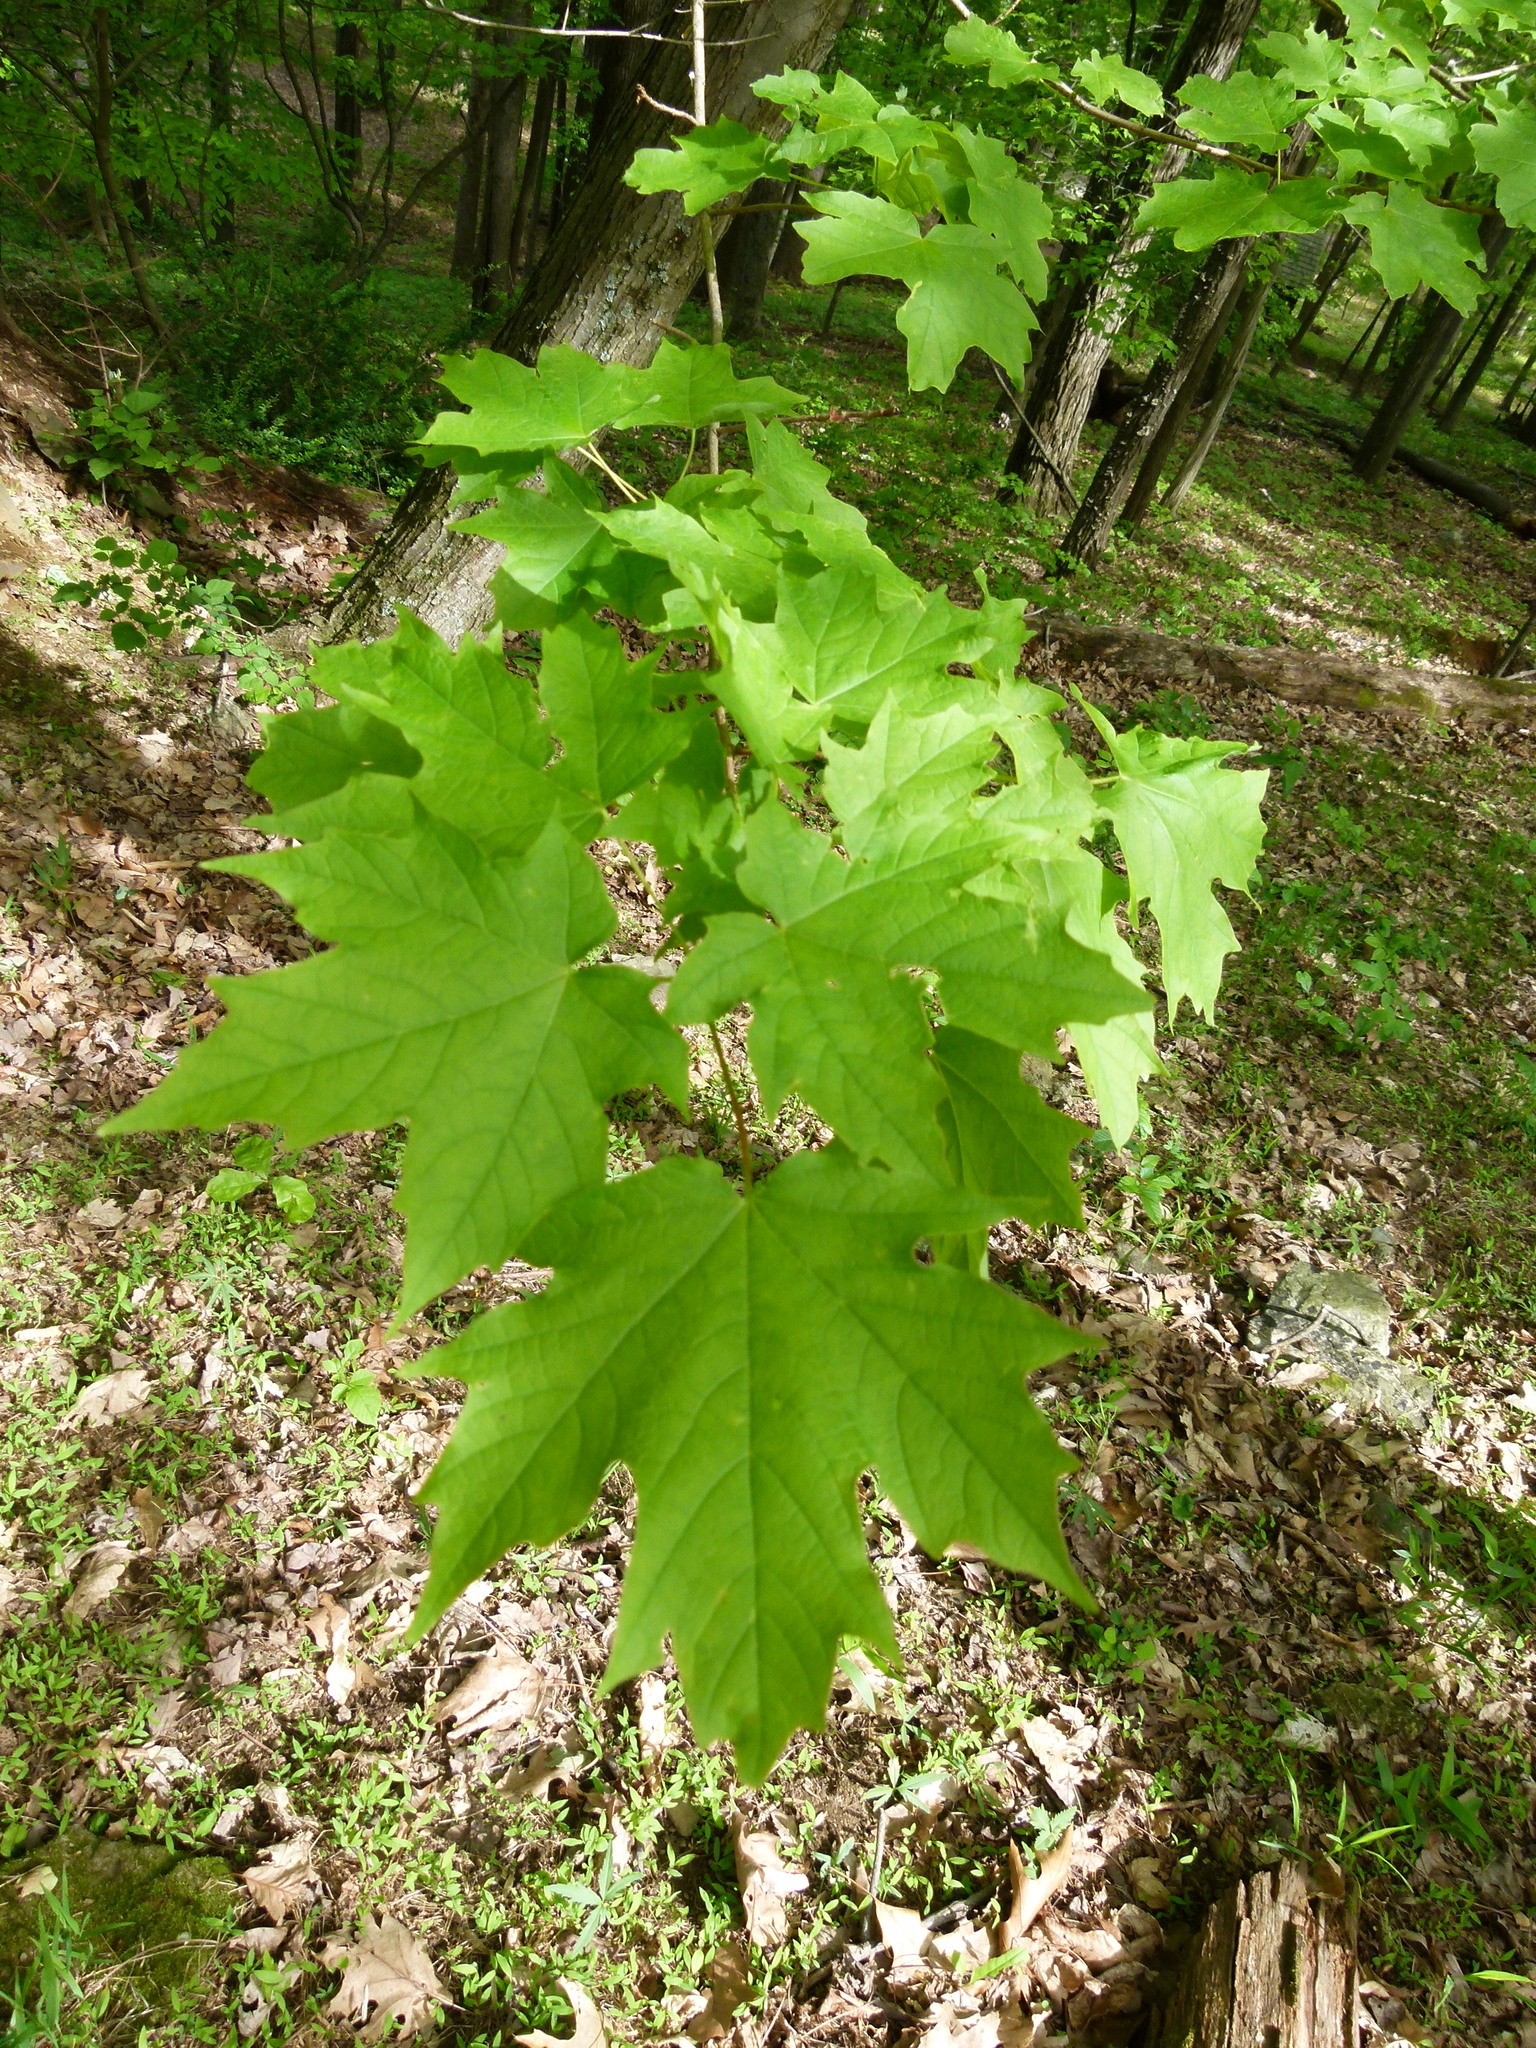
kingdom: Plantae
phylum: Tracheophyta
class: Magnoliopsida
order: Sapindales
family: Sapindaceae
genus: Acer
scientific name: Acer saccharum
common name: Sugar maple
